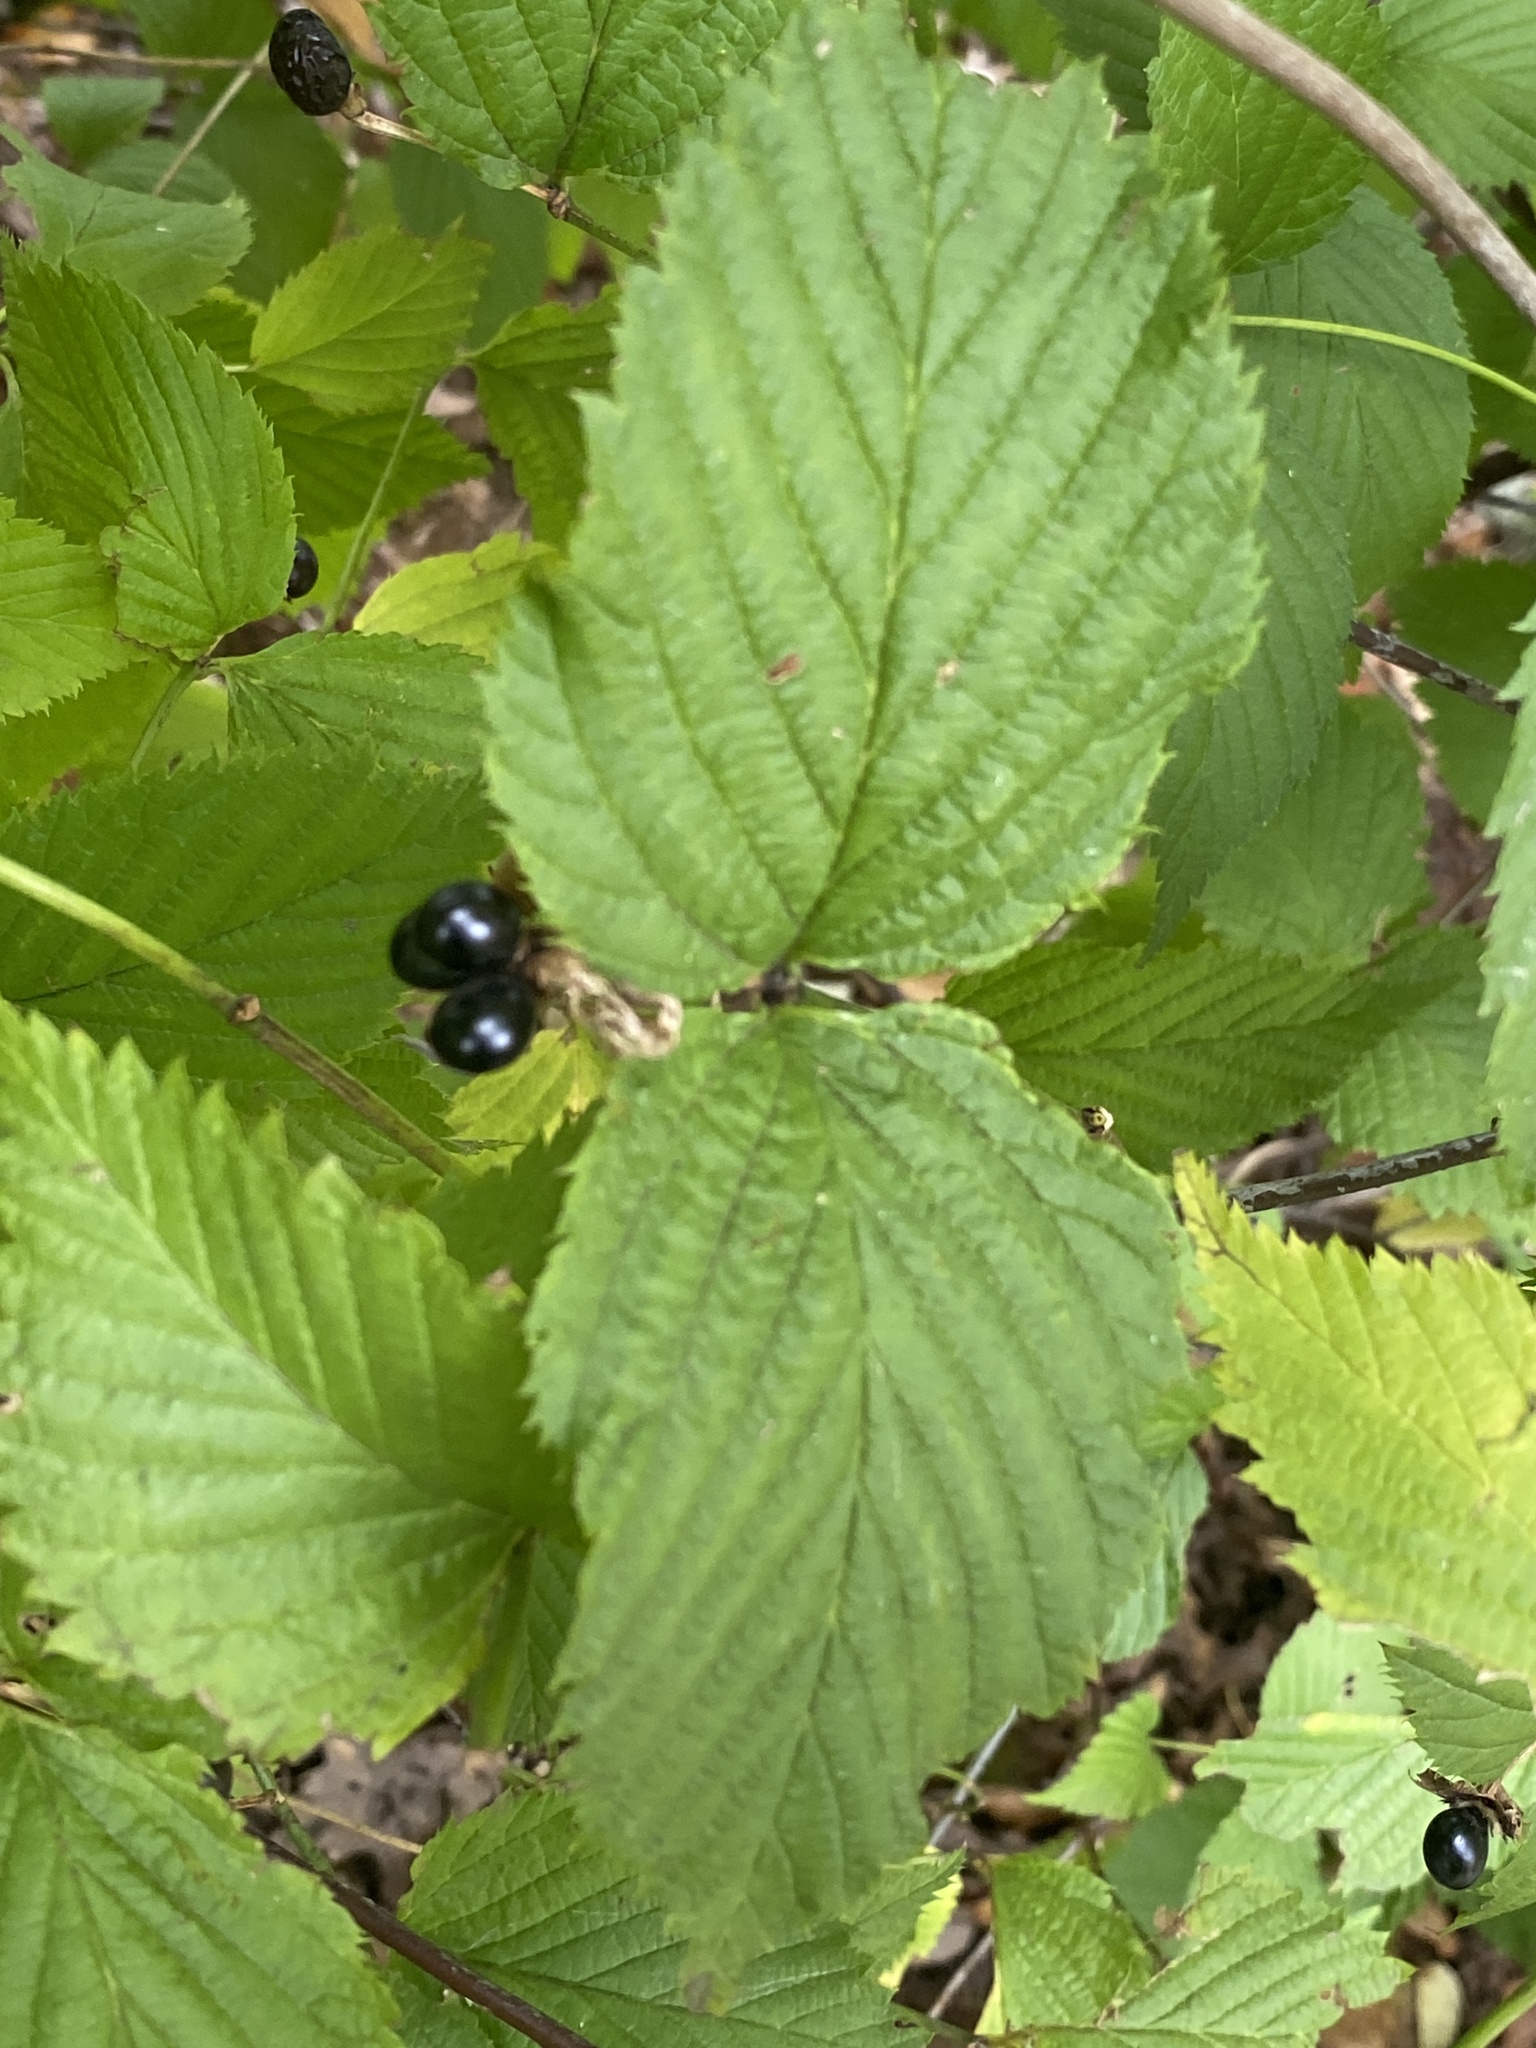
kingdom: Plantae
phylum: Tracheophyta
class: Magnoliopsida
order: Rosales
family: Rosaceae
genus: Rhodotypos
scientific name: Rhodotypos scandens
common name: Jetbead
